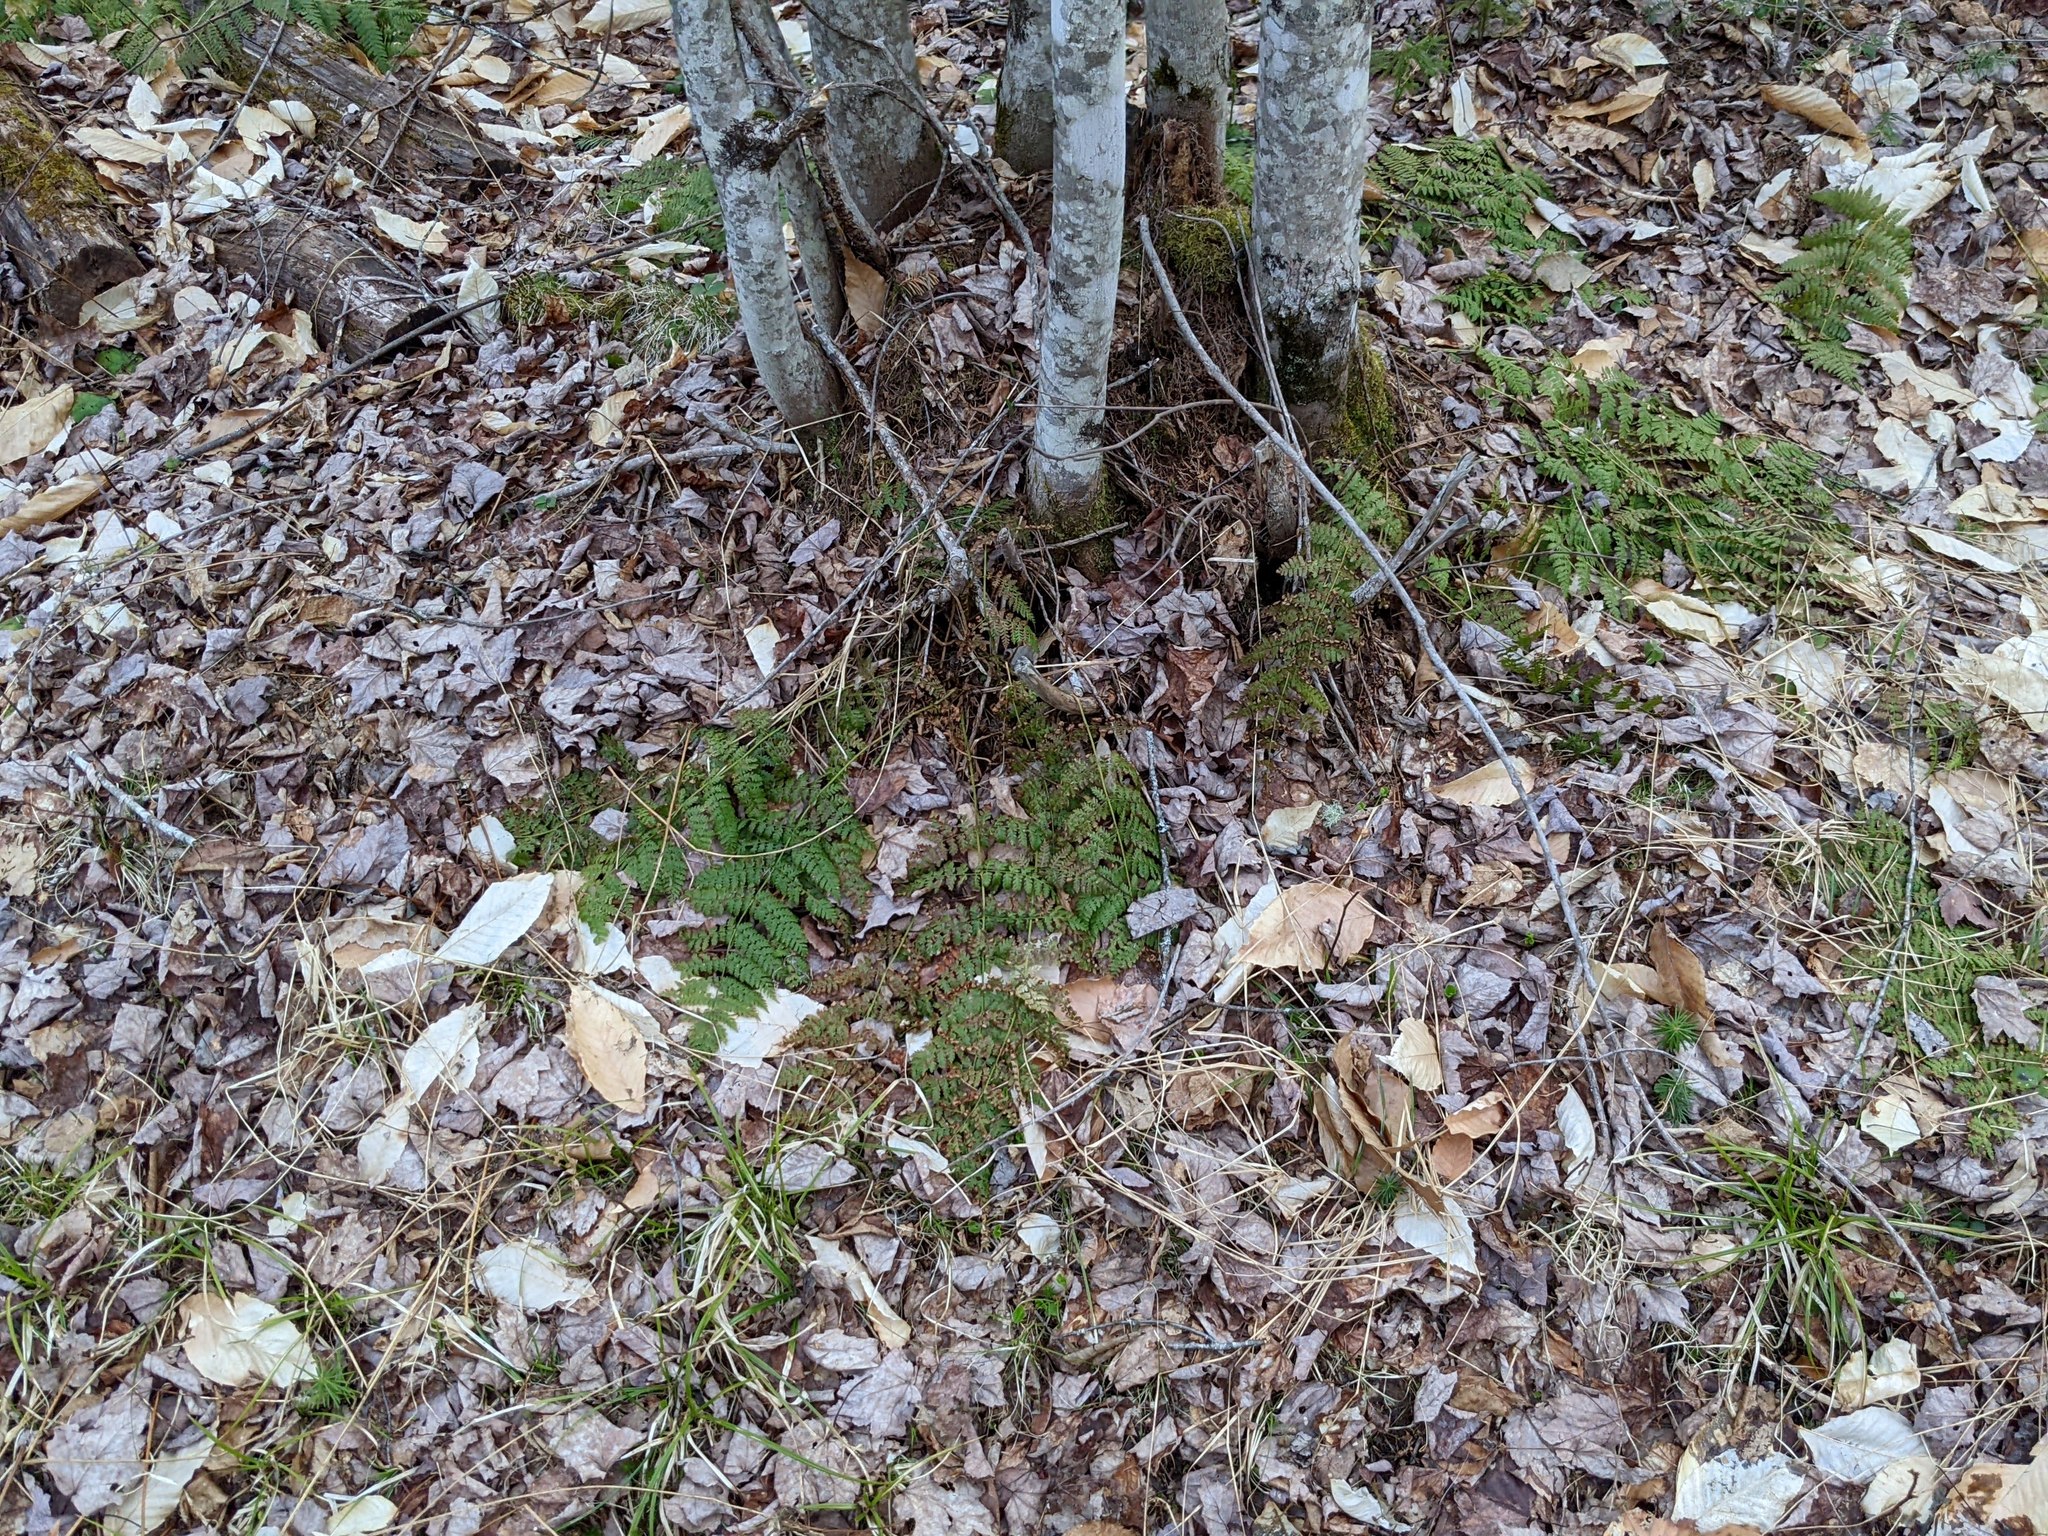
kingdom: Plantae
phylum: Tracheophyta
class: Polypodiopsida
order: Polypodiales
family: Dryopteridaceae
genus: Dryopteris
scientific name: Dryopteris intermedia
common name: Evergreen wood fern
